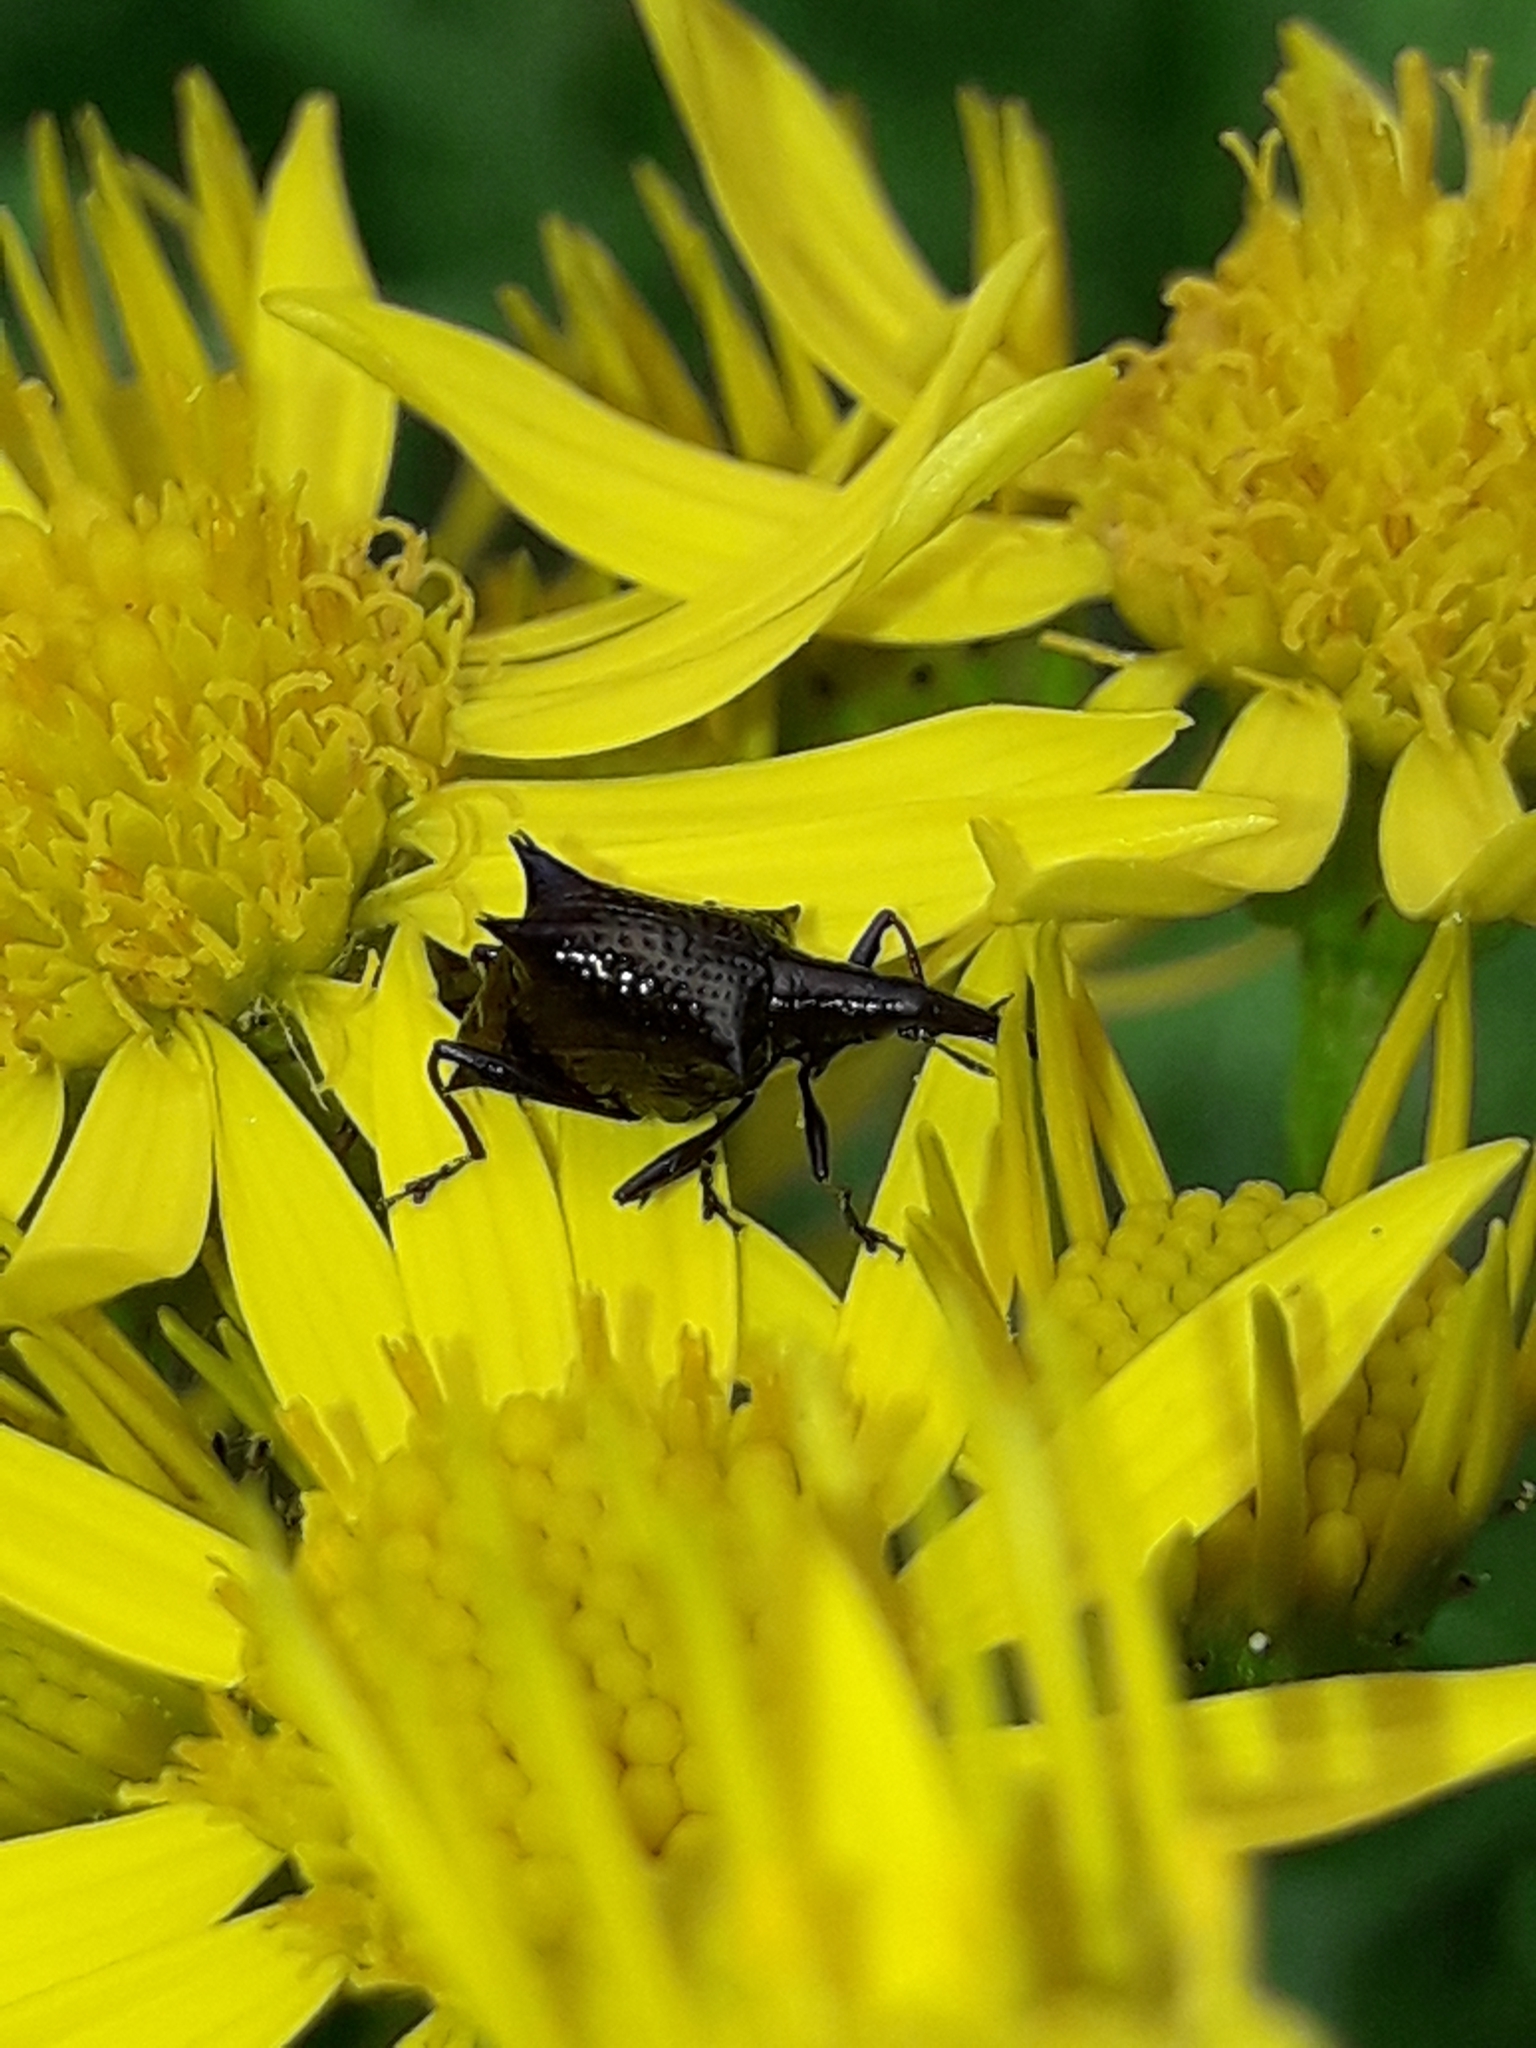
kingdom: Animalia
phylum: Arthropoda
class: Insecta
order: Coleoptera
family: Curculionidae
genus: Scolopterus
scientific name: Scolopterus aequus
